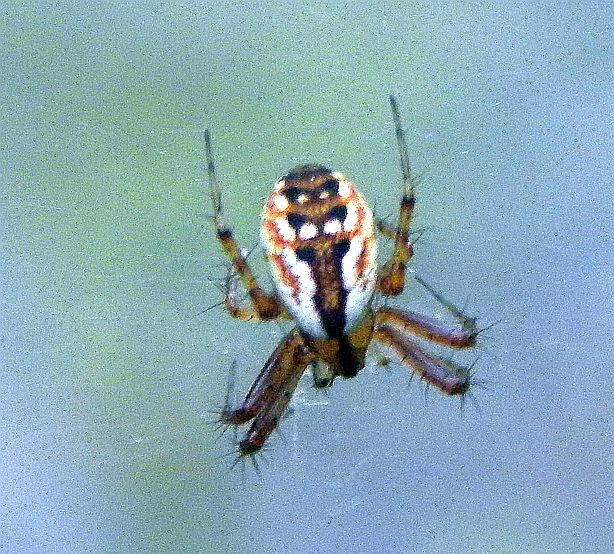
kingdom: Animalia
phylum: Arthropoda
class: Arachnida
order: Araneae
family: Araneidae
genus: Mangora
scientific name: Mangora placida
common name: Tuft-legged orbweaver
